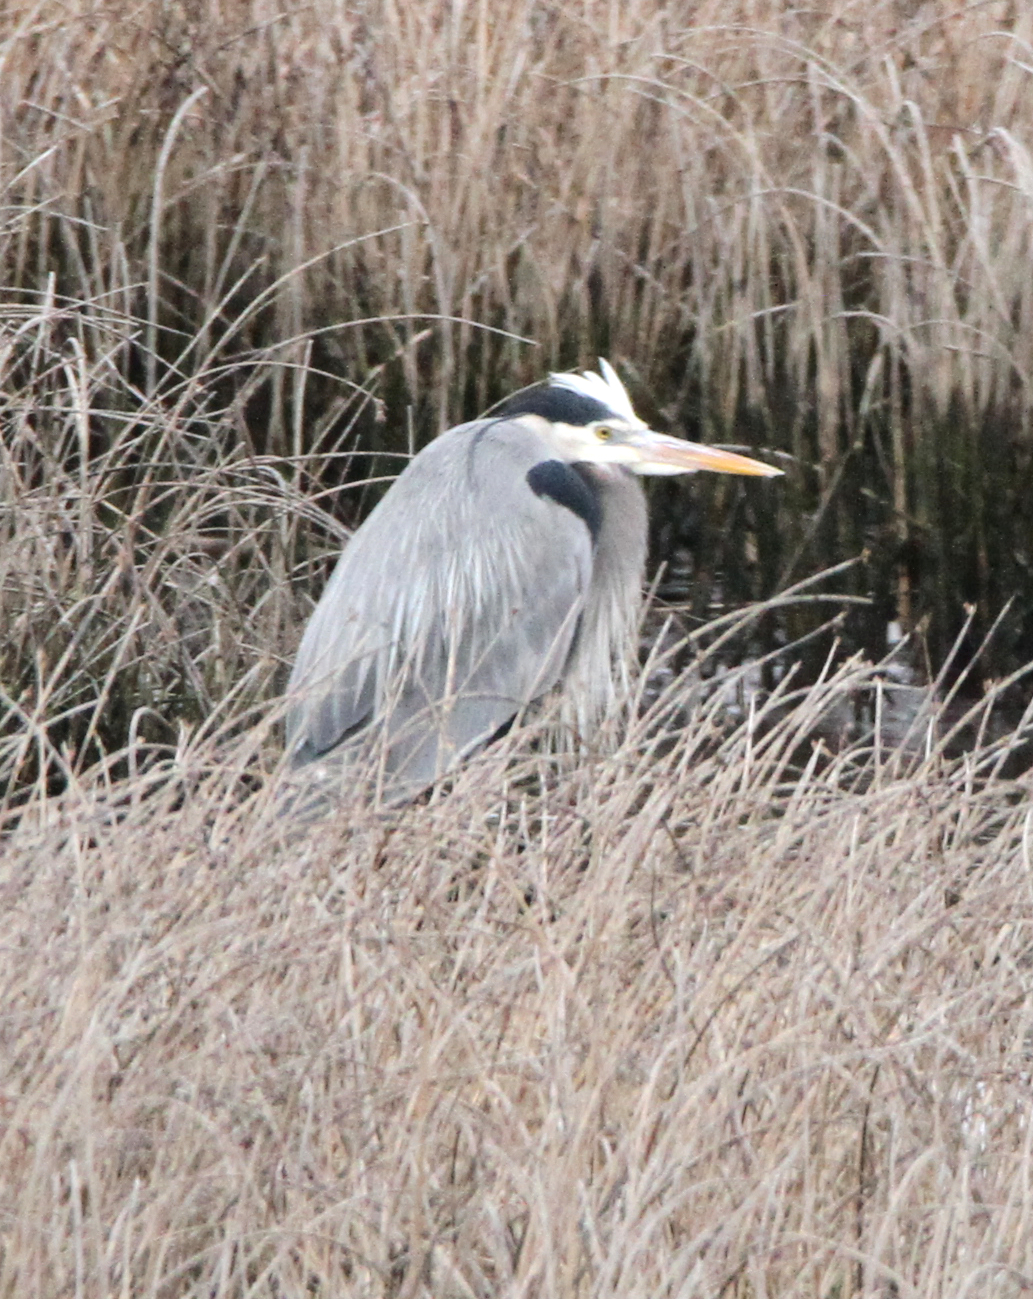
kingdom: Animalia
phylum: Chordata
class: Aves
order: Pelecaniformes
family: Ardeidae
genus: Ardea
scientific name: Ardea herodias
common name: Great blue heron
